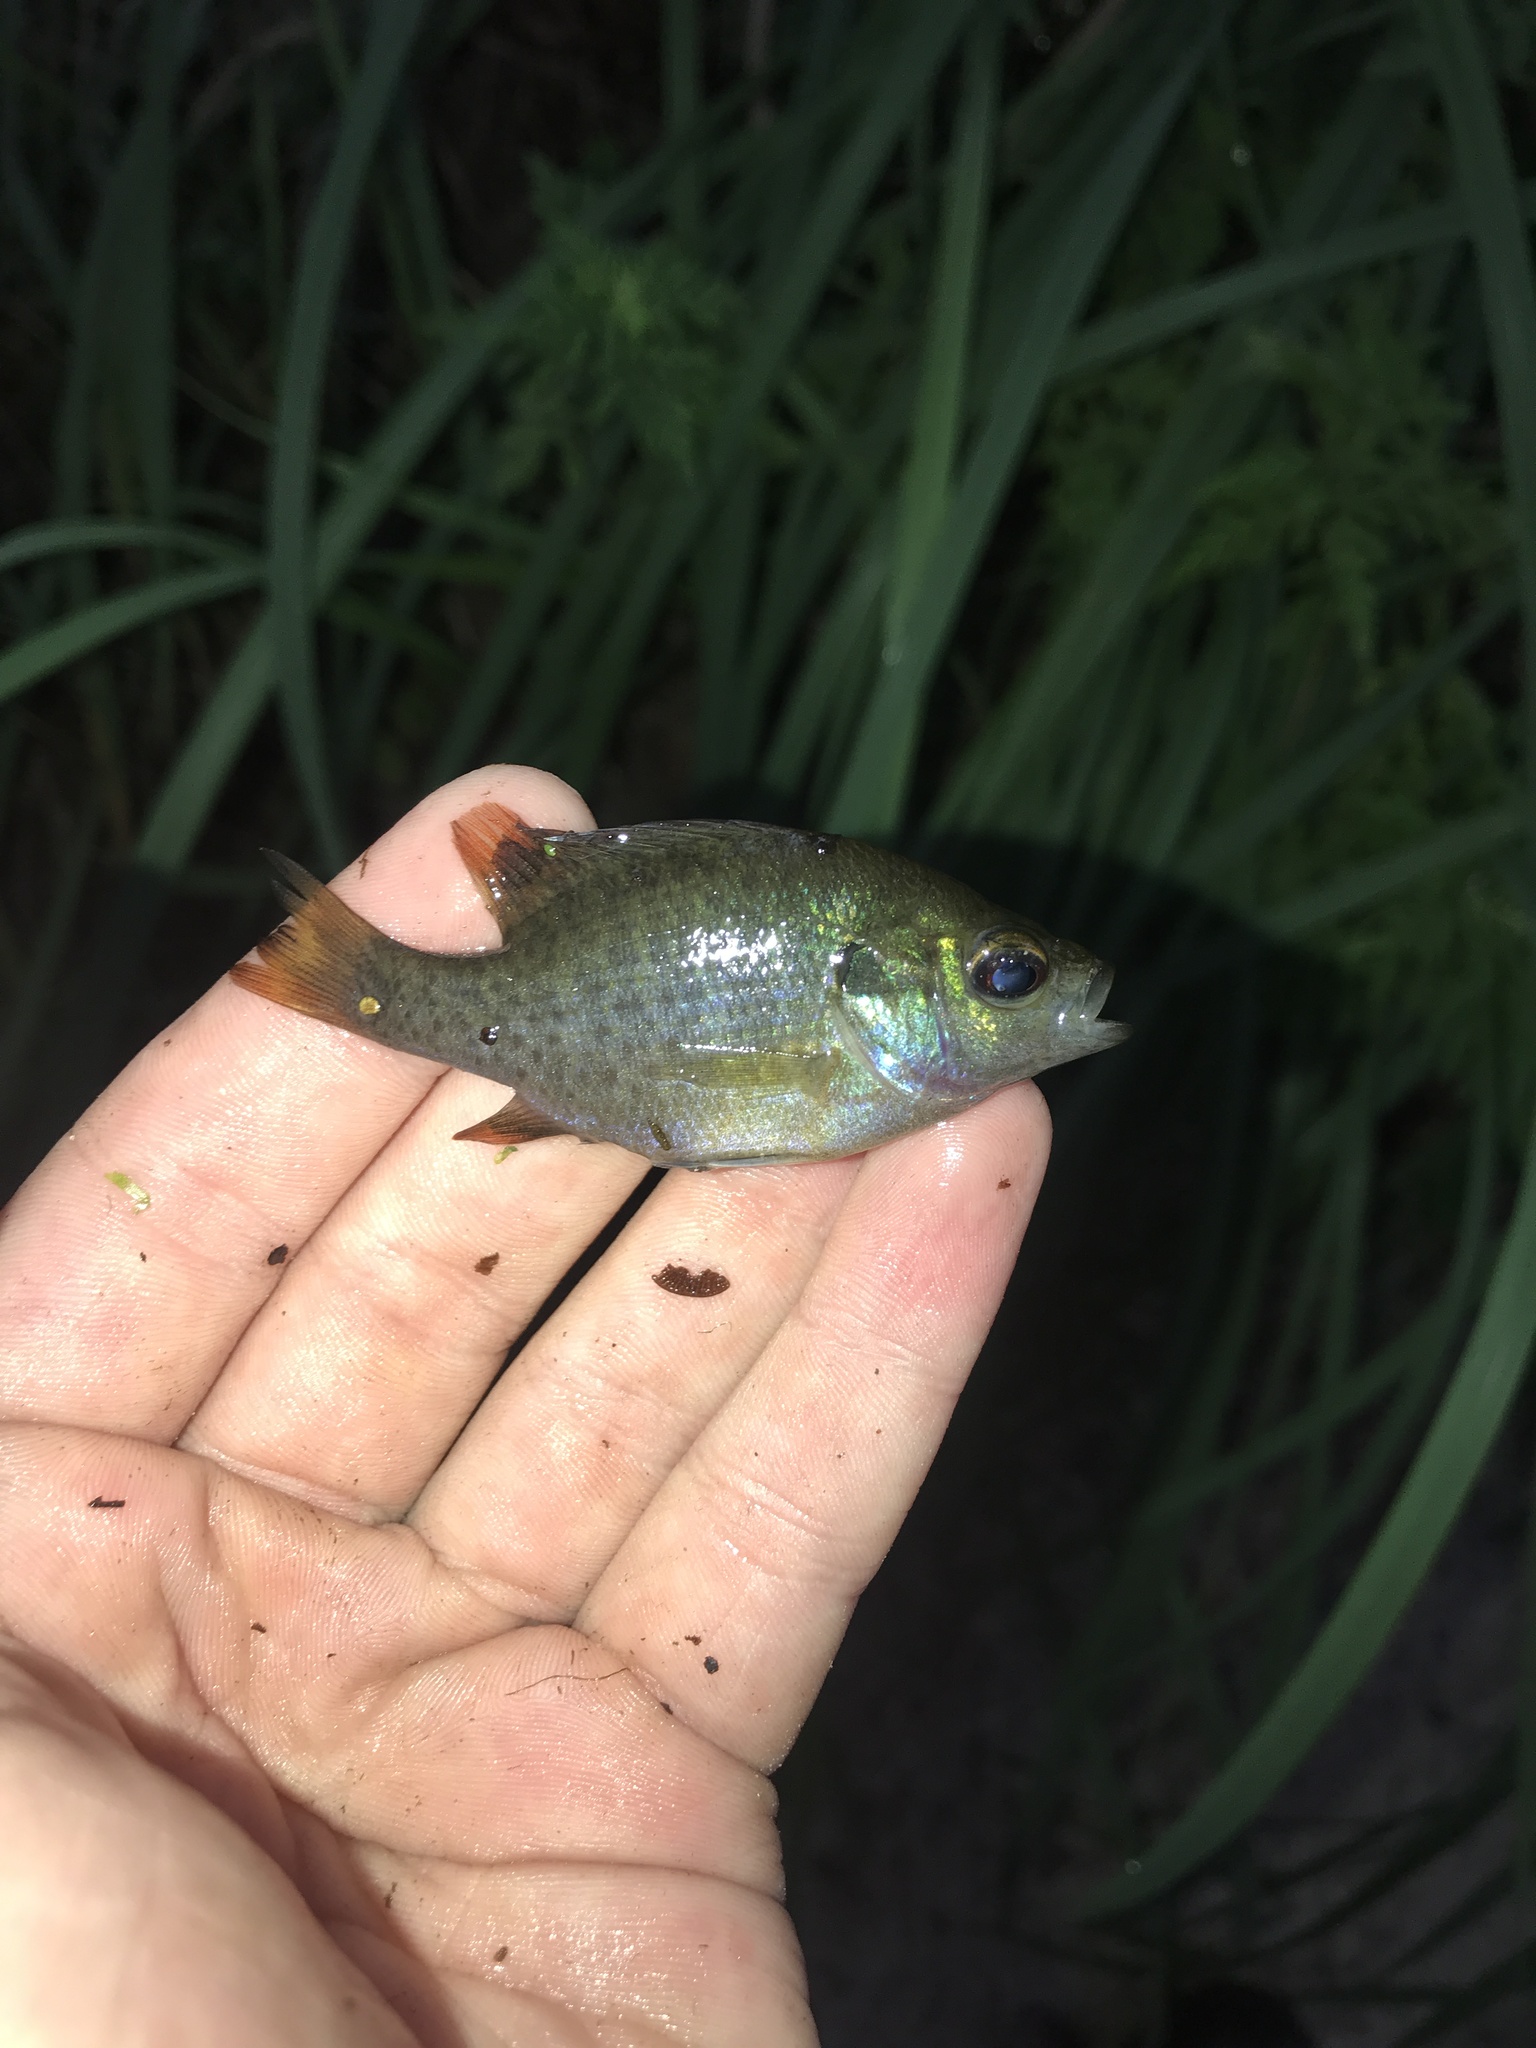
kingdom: Animalia
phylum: Chordata
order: Perciformes
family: Centrarchidae
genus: Lepomis
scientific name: Lepomis macrochirus
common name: Bluegill
